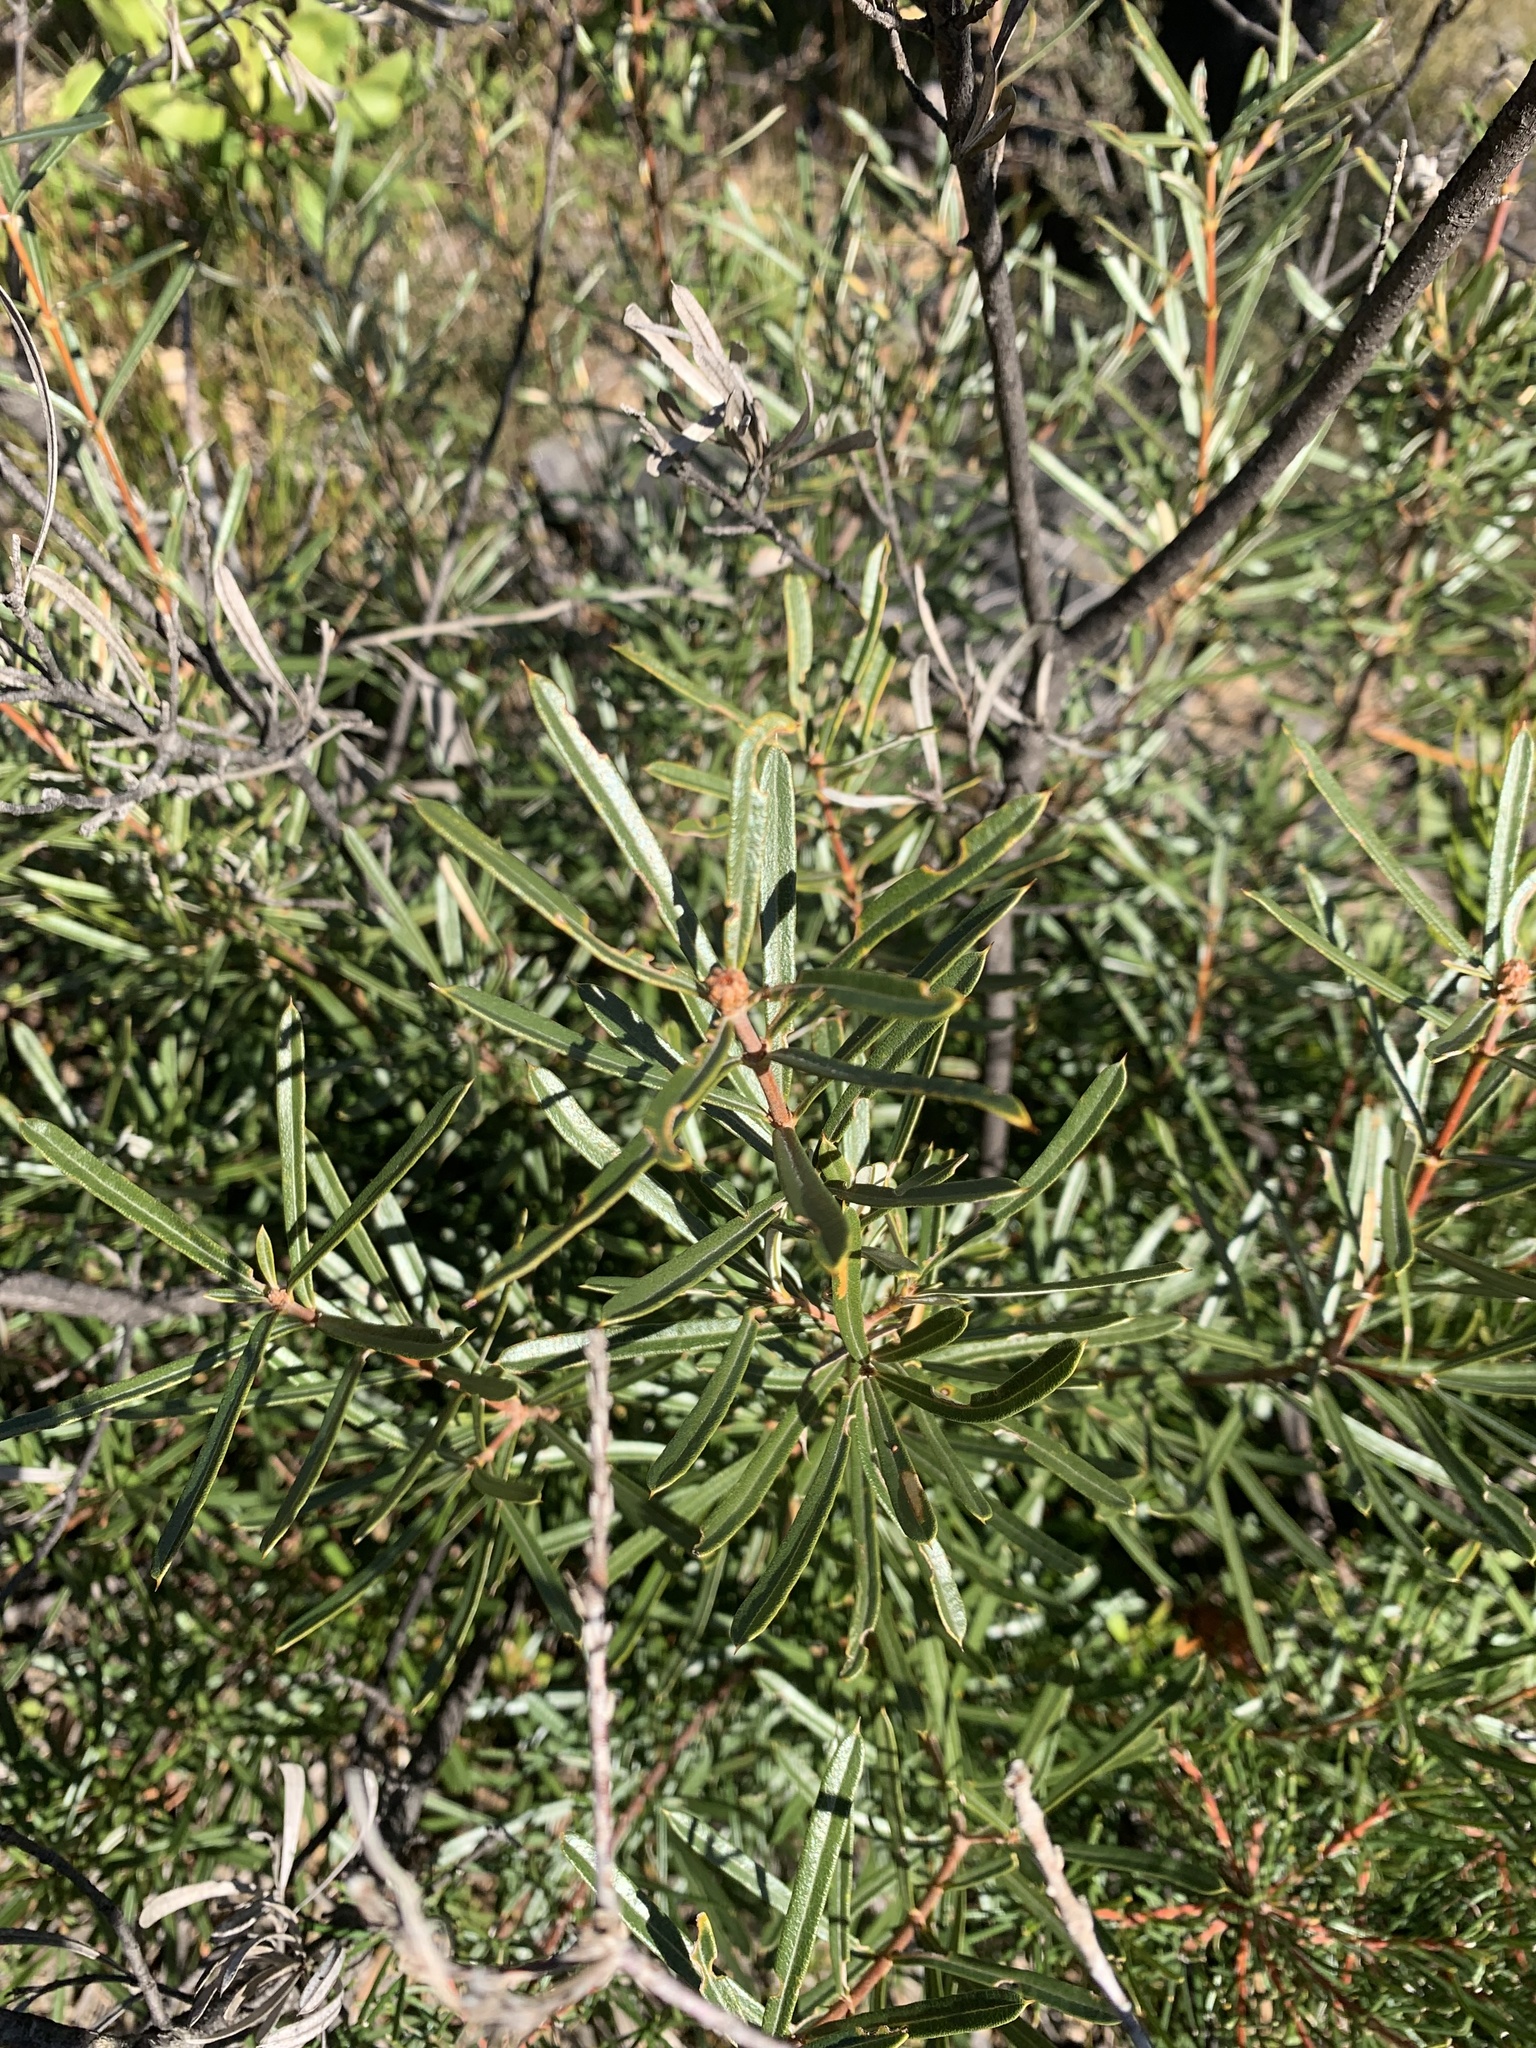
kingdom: Plantae
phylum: Tracheophyta
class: Magnoliopsida
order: Proteales
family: Proteaceae
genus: Lambertia
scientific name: Lambertia formosa
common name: Mountain-devil
